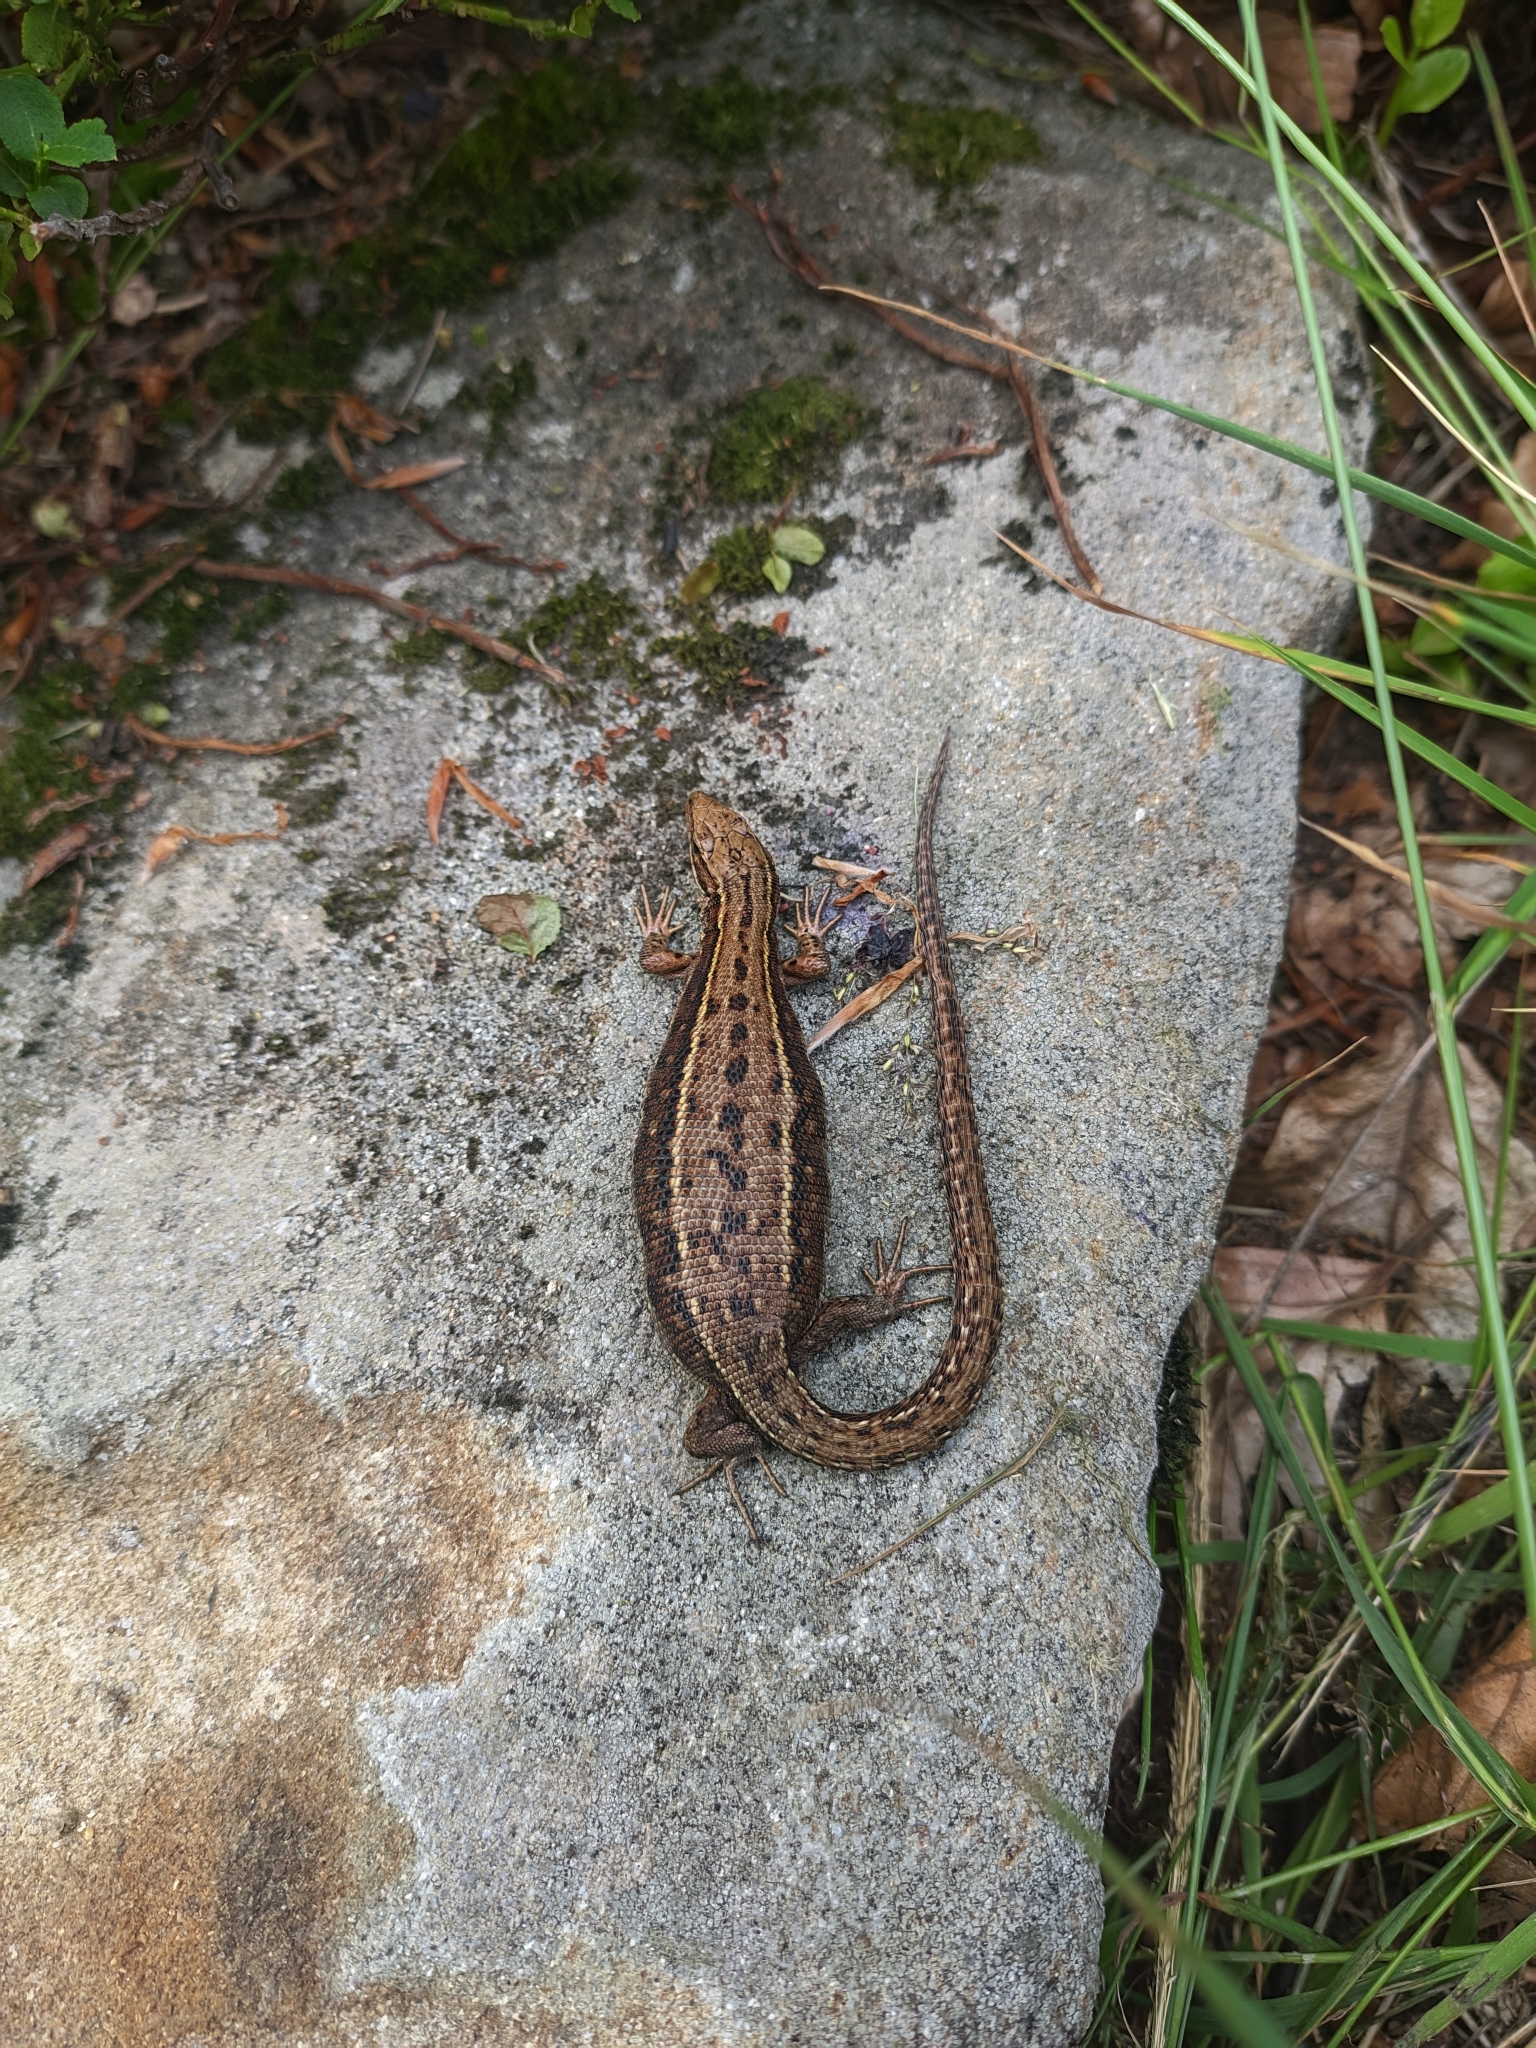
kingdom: Animalia
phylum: Chordata
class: Squamata
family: Lacertidae
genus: Zootoca
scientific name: Zootoca vivipara
